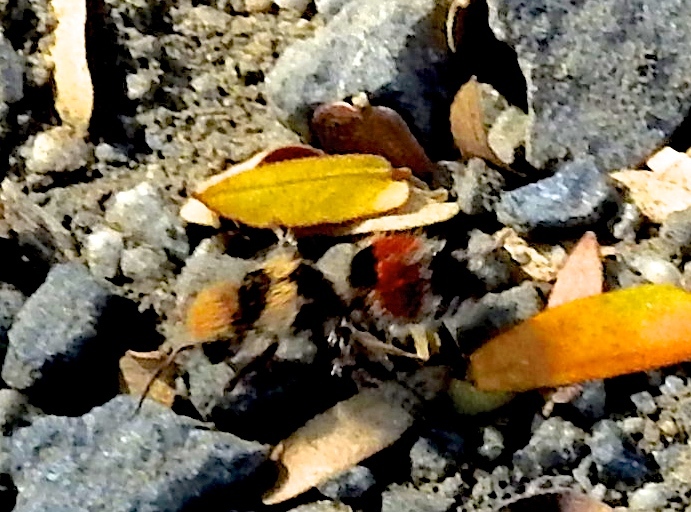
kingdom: Animalia
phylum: Arthropoda
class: Insecta
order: Hymenoptera
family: Mutillidae
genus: Dasymutilla
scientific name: Dasymutilla foxi
